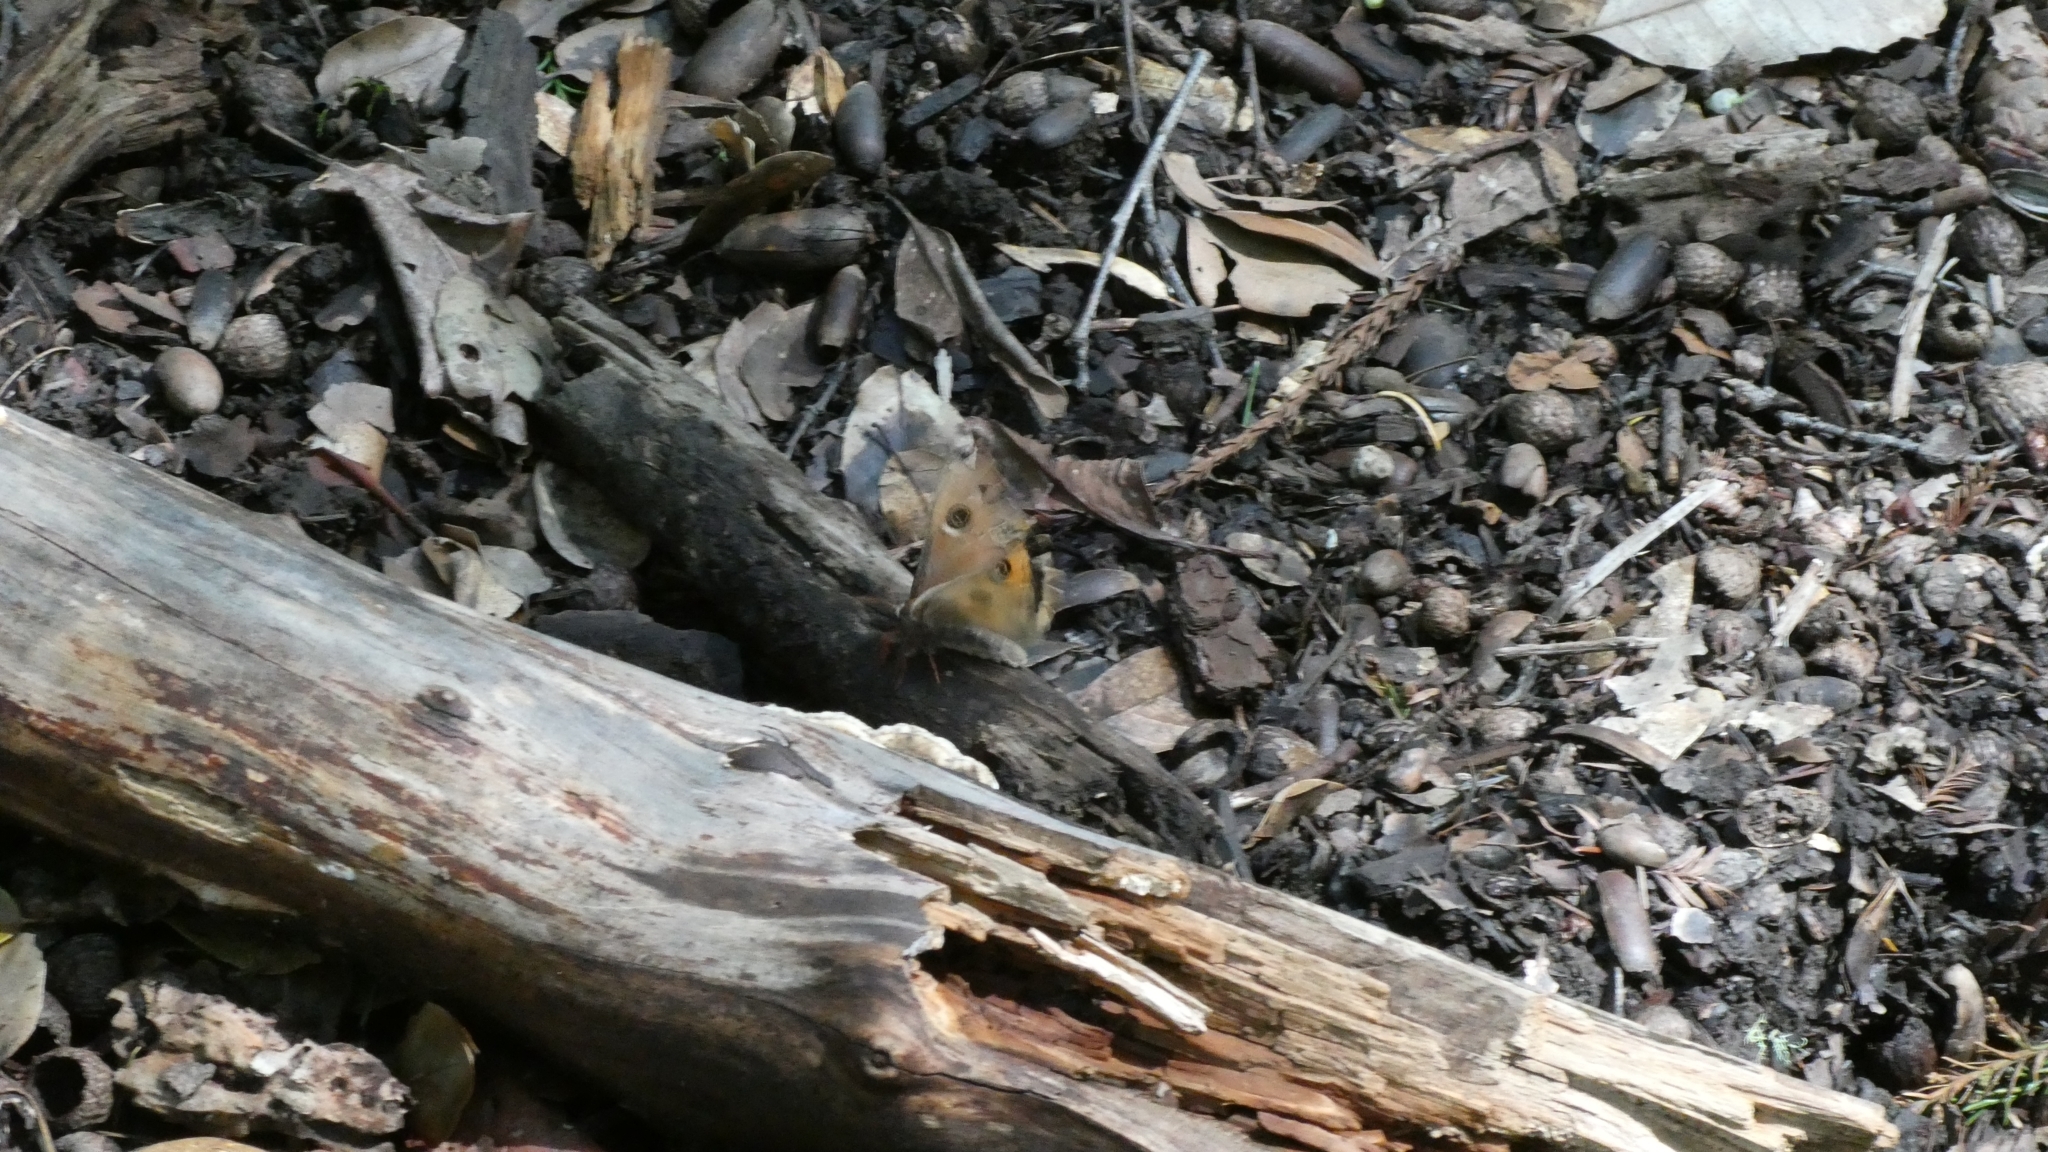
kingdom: Animalia
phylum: Arthropoda
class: Insecta
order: Lepidoptera
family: Saturniidae
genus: Saturnia
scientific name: Saturnia mendocino
